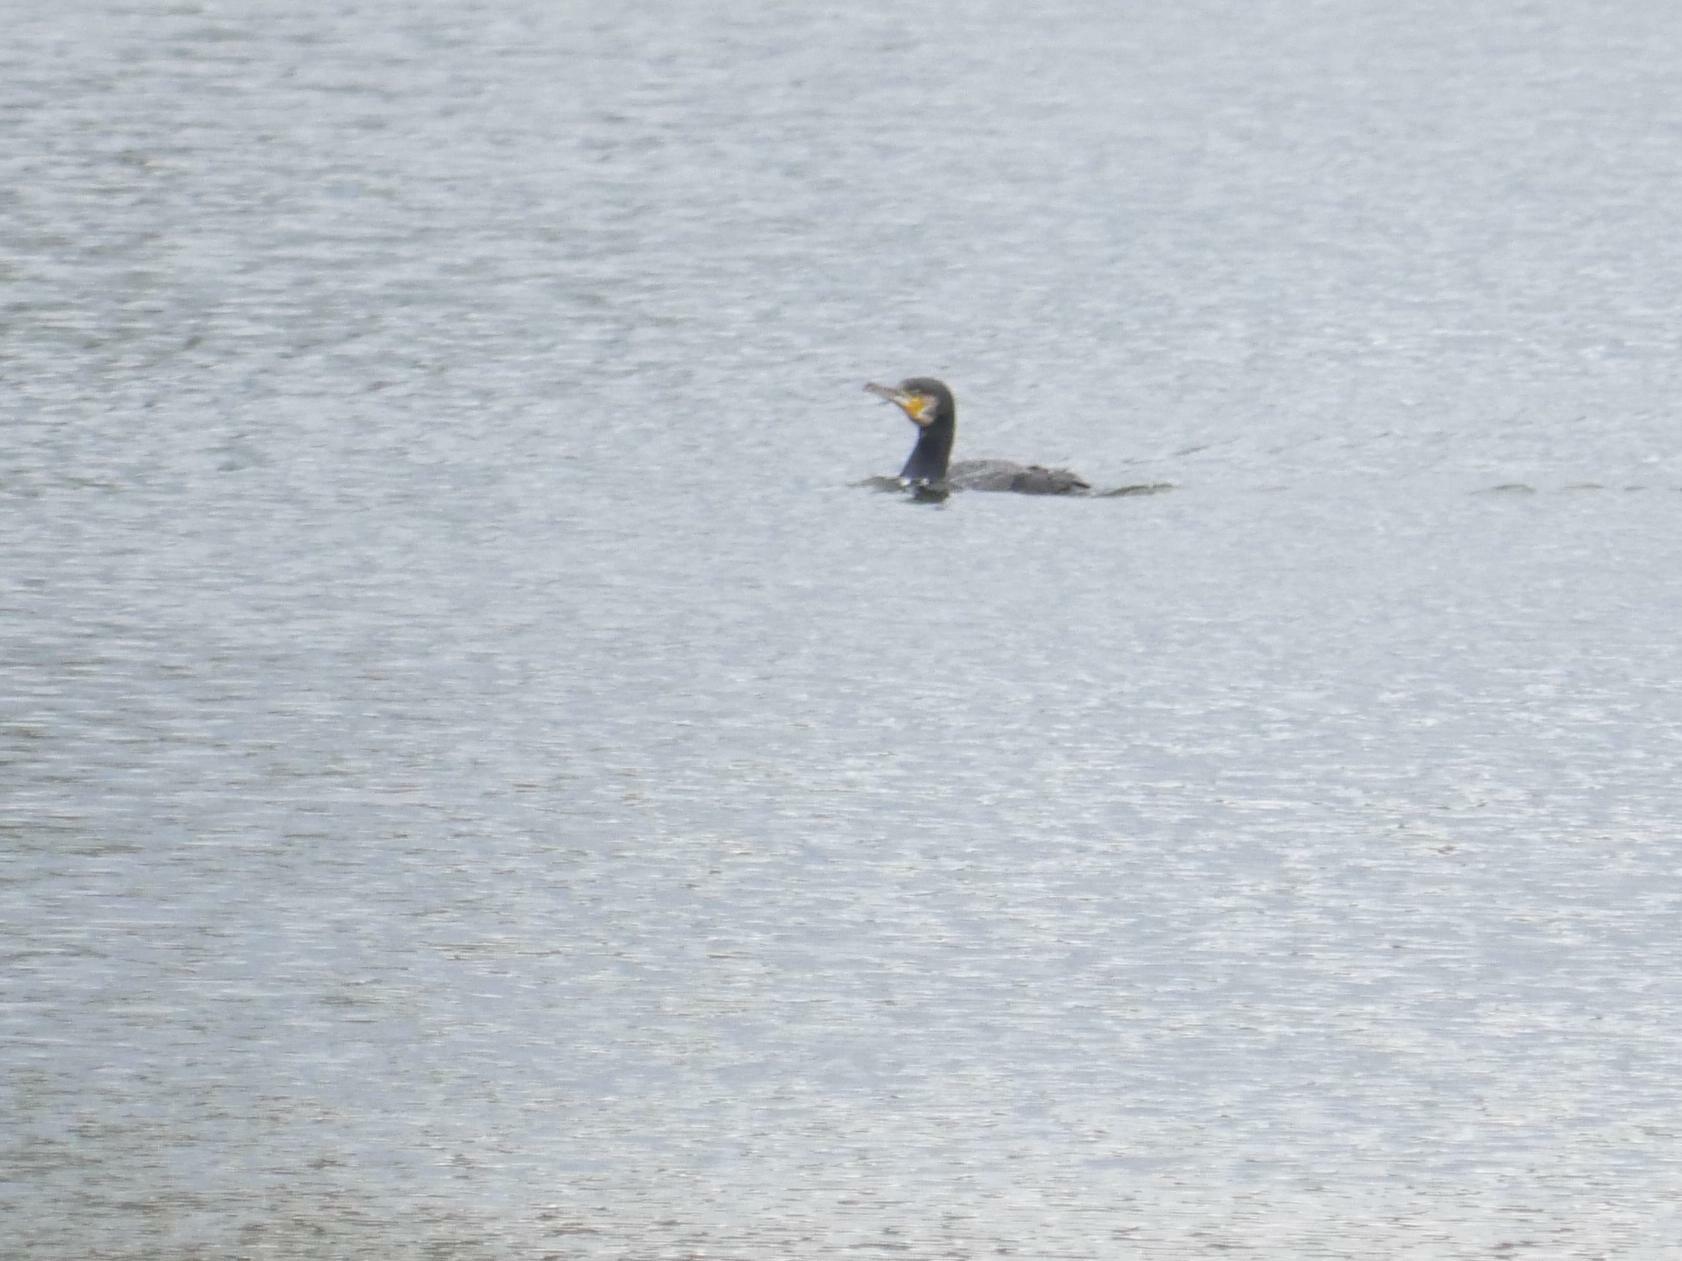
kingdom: Animalia
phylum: Chordata
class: Aves
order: Suliformes
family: Phalacrocoracidae
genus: Phalacrocorax
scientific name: Phalacrocorax carbo
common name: Great cormorant
